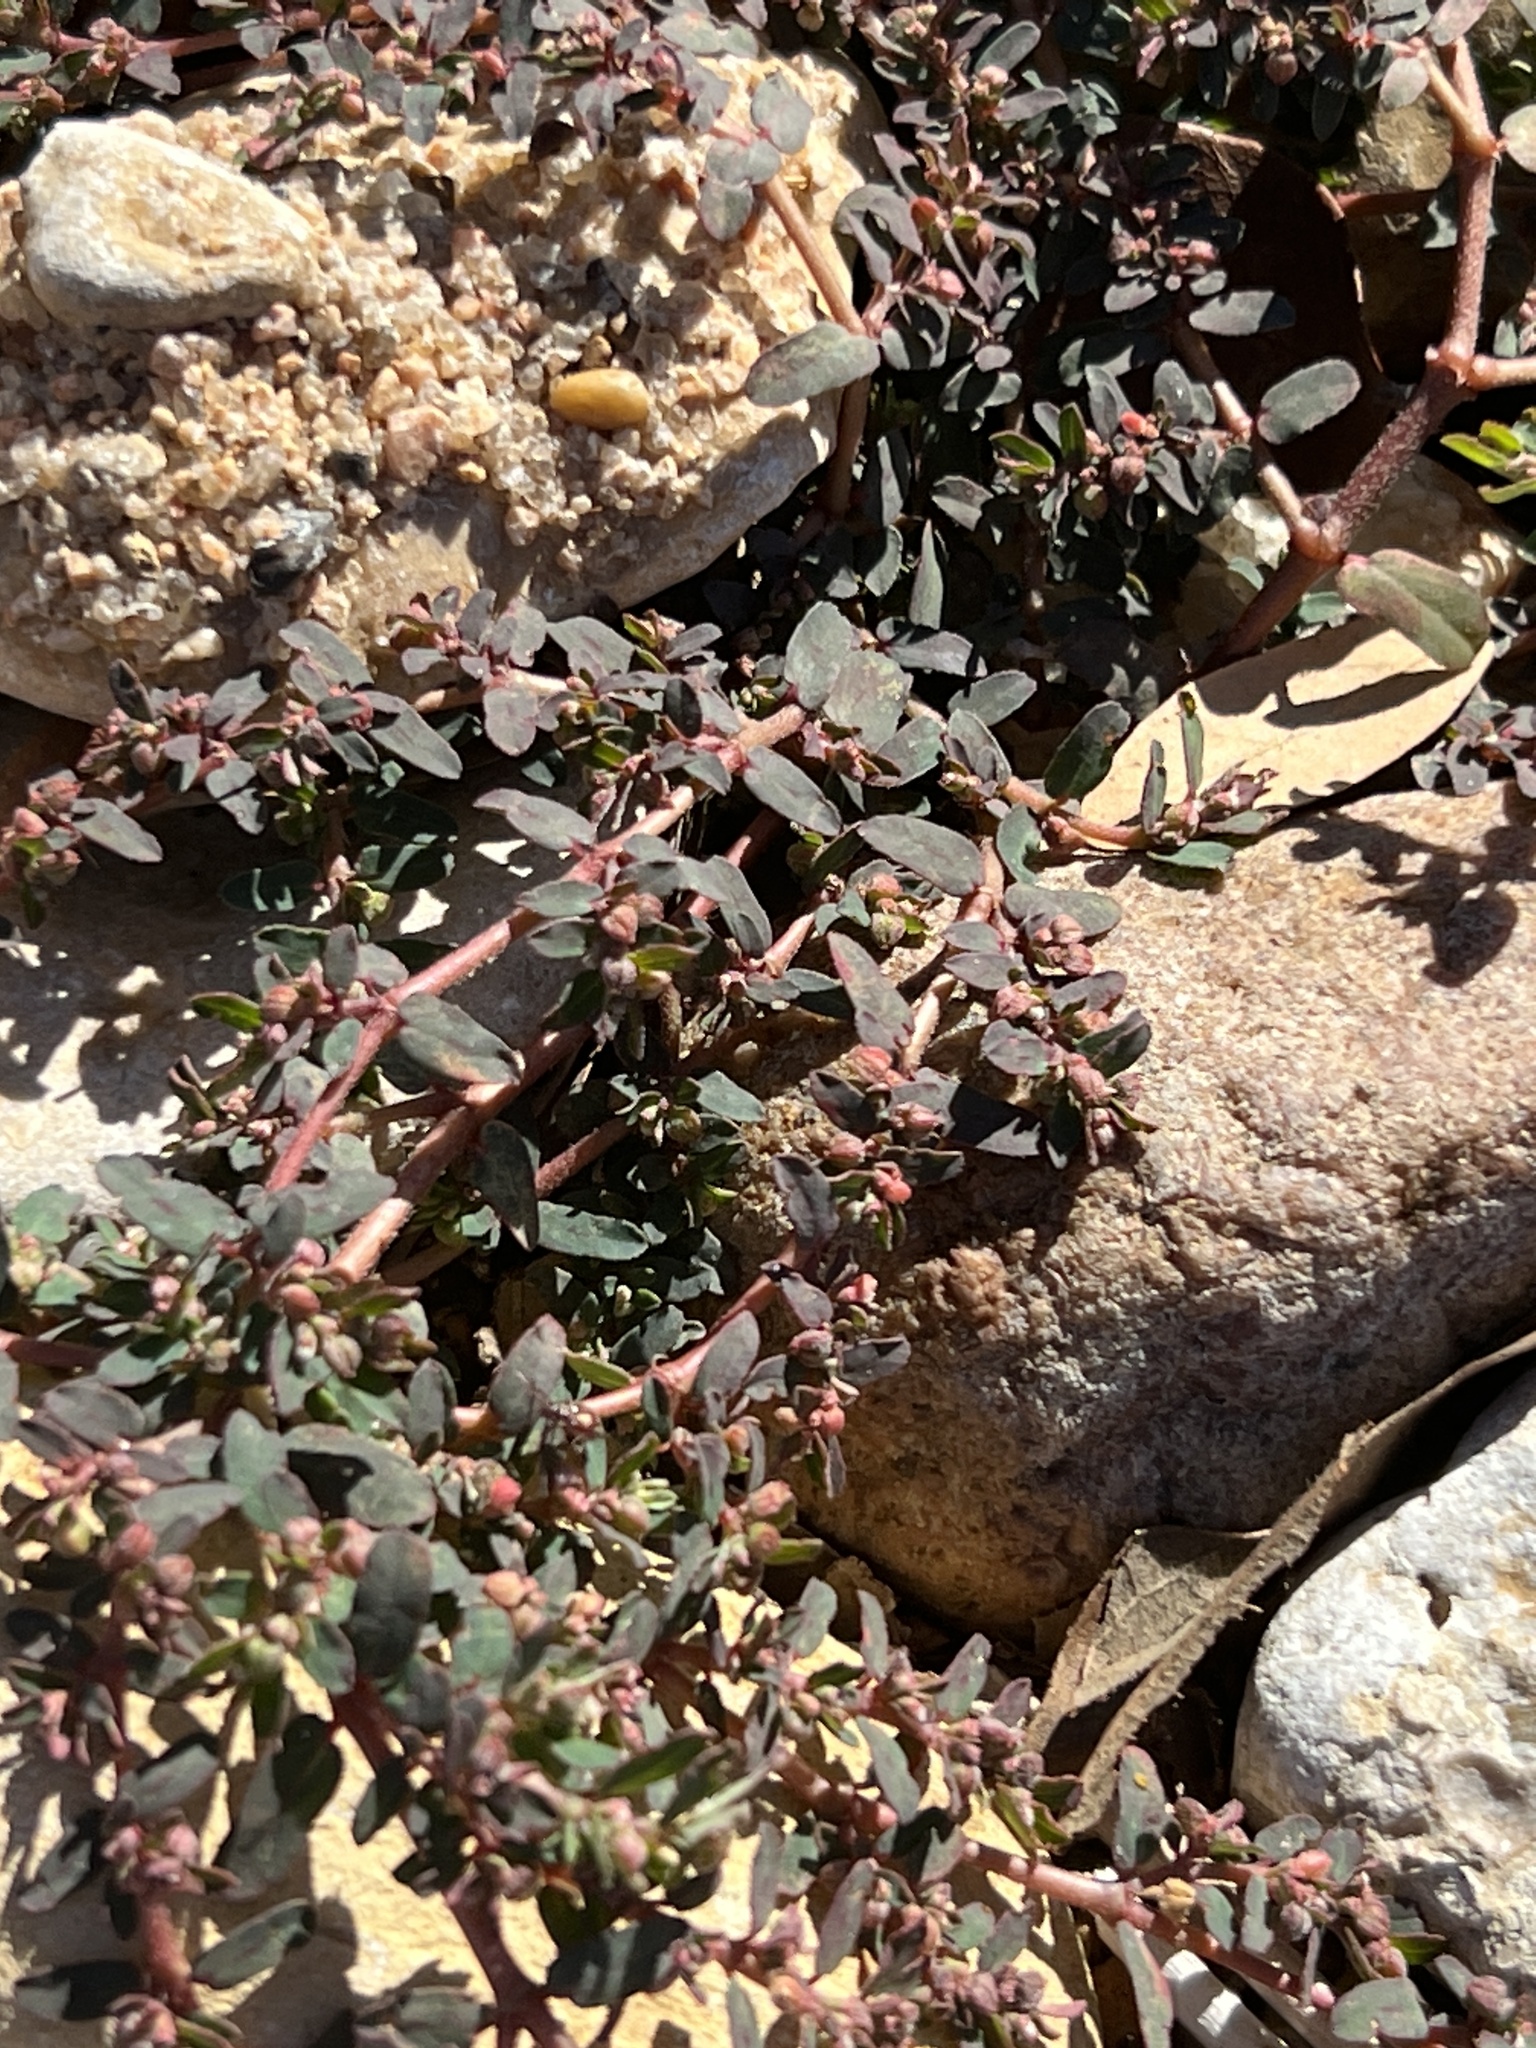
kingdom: Plantae
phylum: Tracheophyta
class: Magnoliopsida
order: Malpighiales
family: Euphorbiaceae
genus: Euphorbia
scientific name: Euphorbia maculata
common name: Spotted spurge
